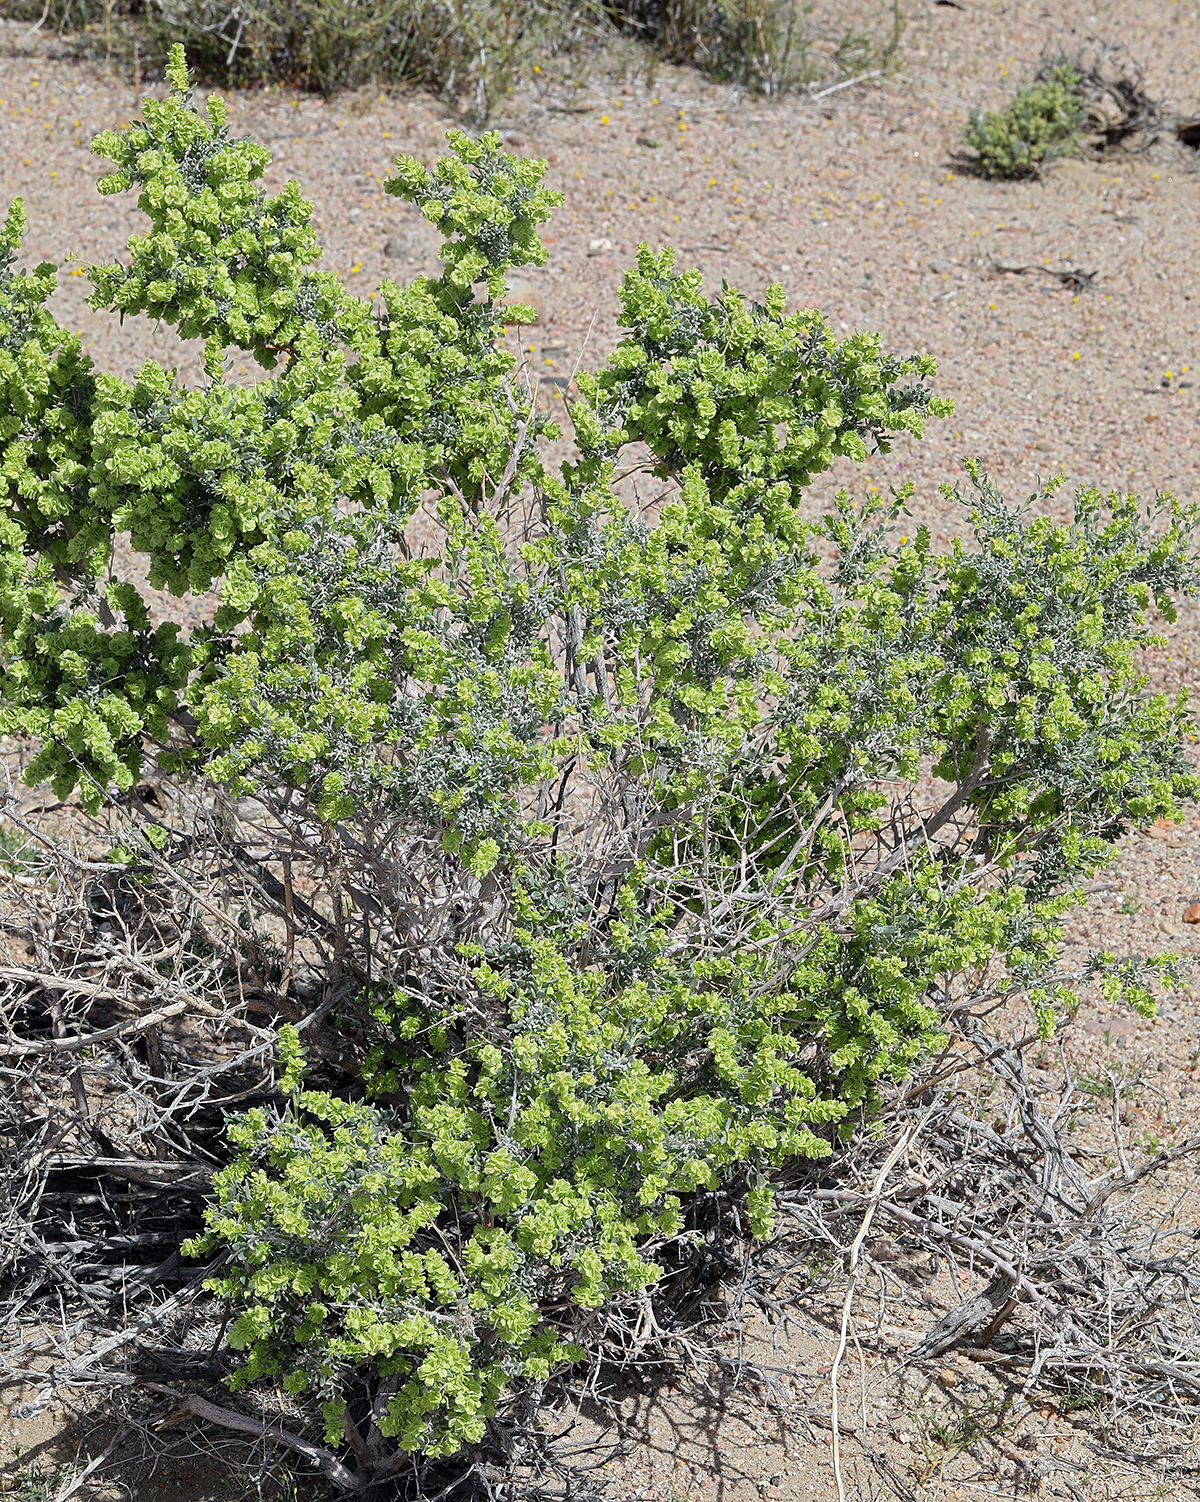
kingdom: Plantae
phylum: Tracheophyta
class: Magnoliopsida
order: Caryophyllales
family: Amaranthaceae
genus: Grayia
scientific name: Grayia spinosa
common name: Spiny hopsage
